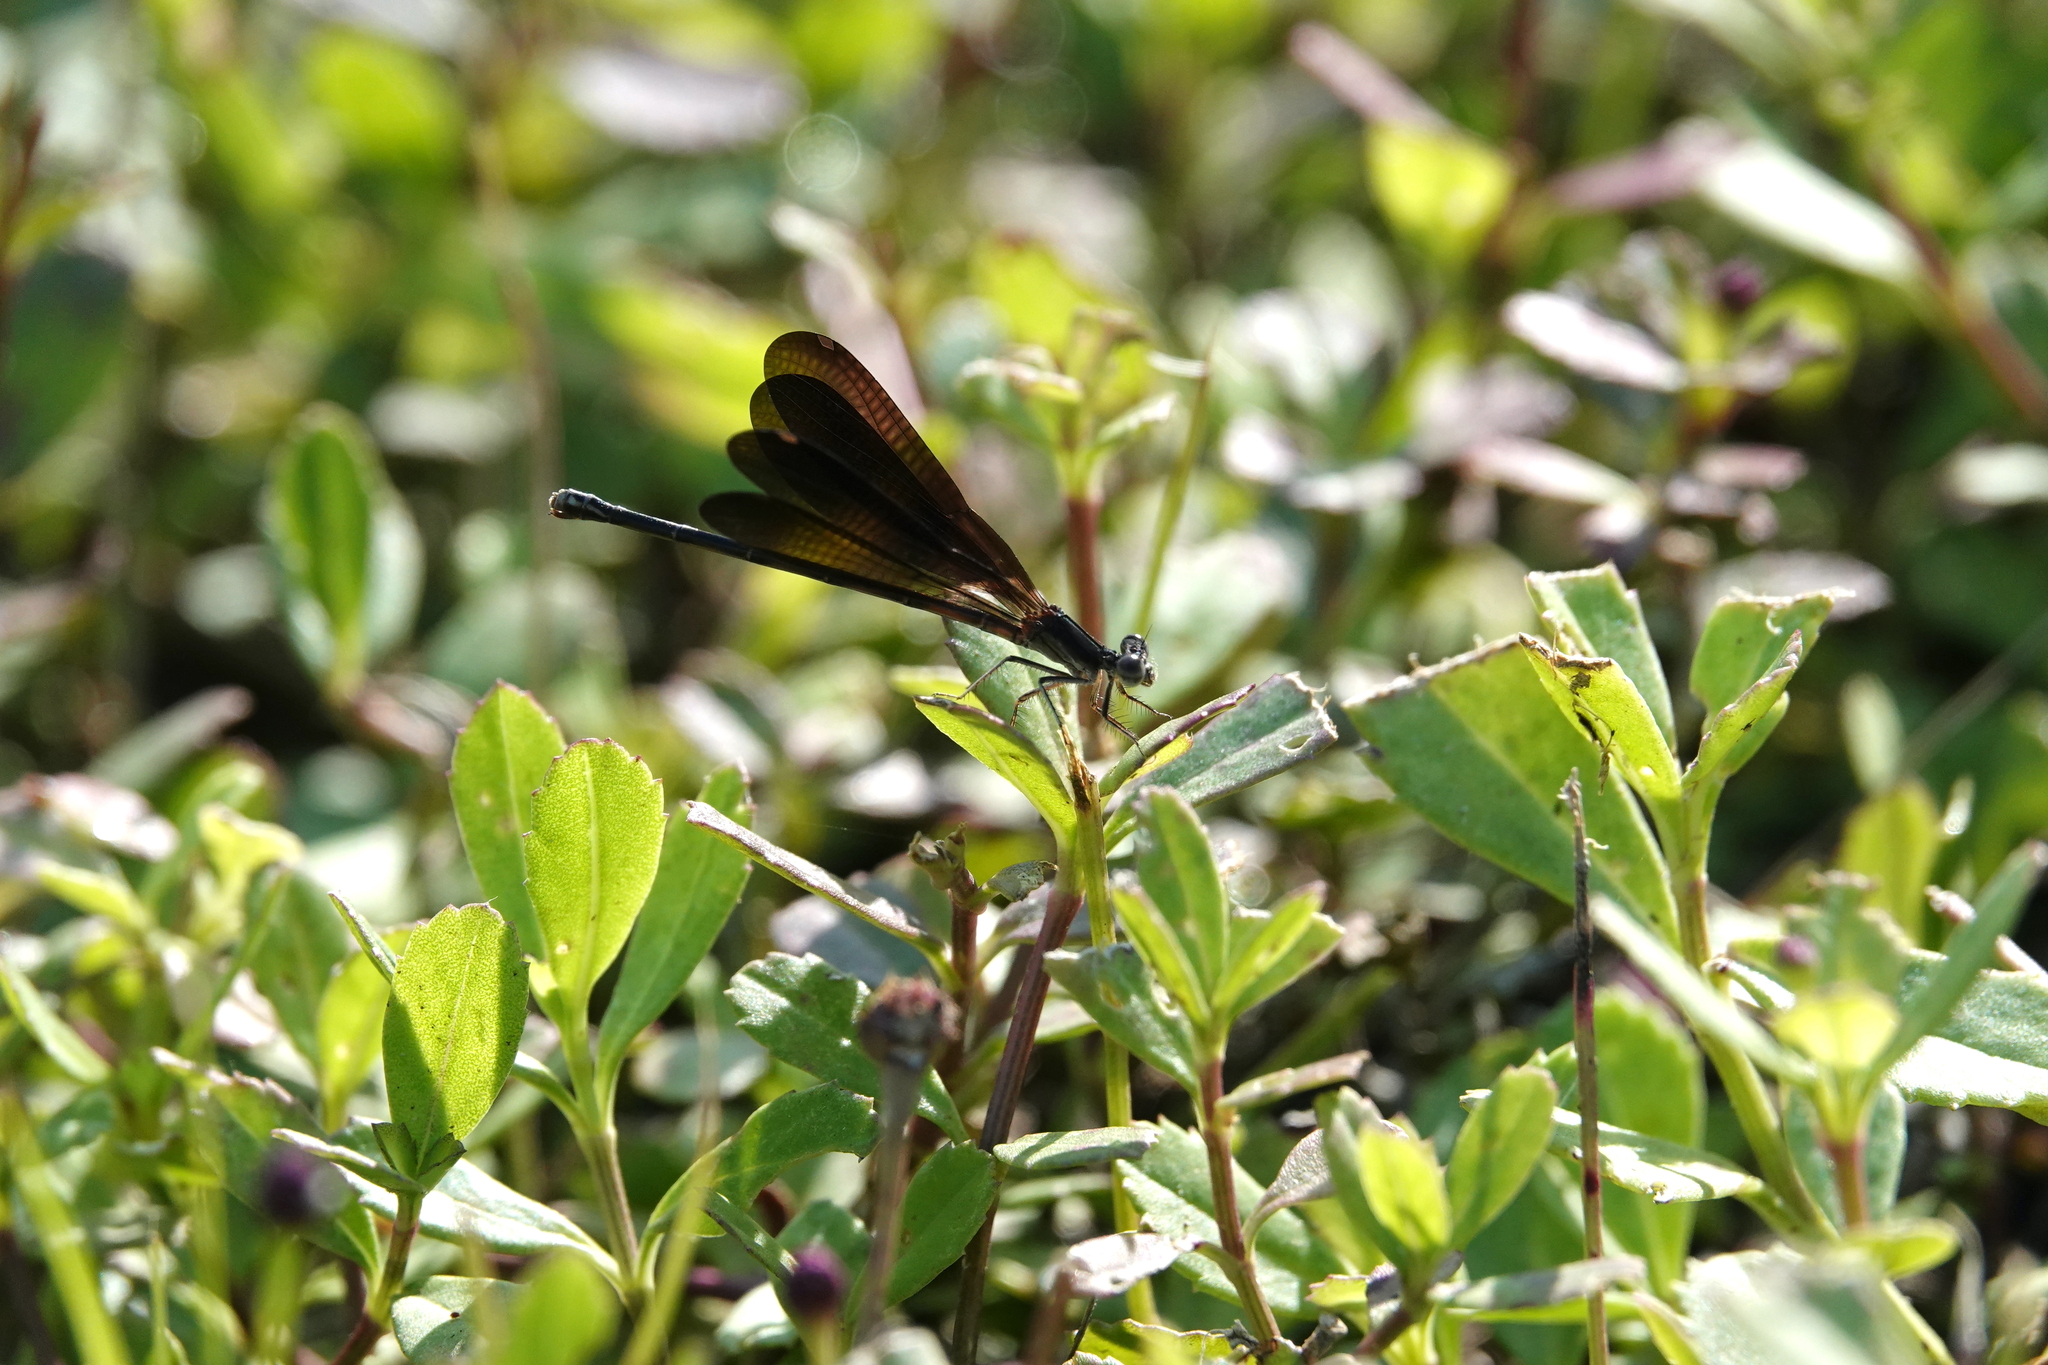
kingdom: Animalia
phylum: Arthropoda
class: Insecta
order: Odonata
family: Coenagrionidae
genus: Argia
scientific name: Argia fumipennis
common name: Variable dancer
